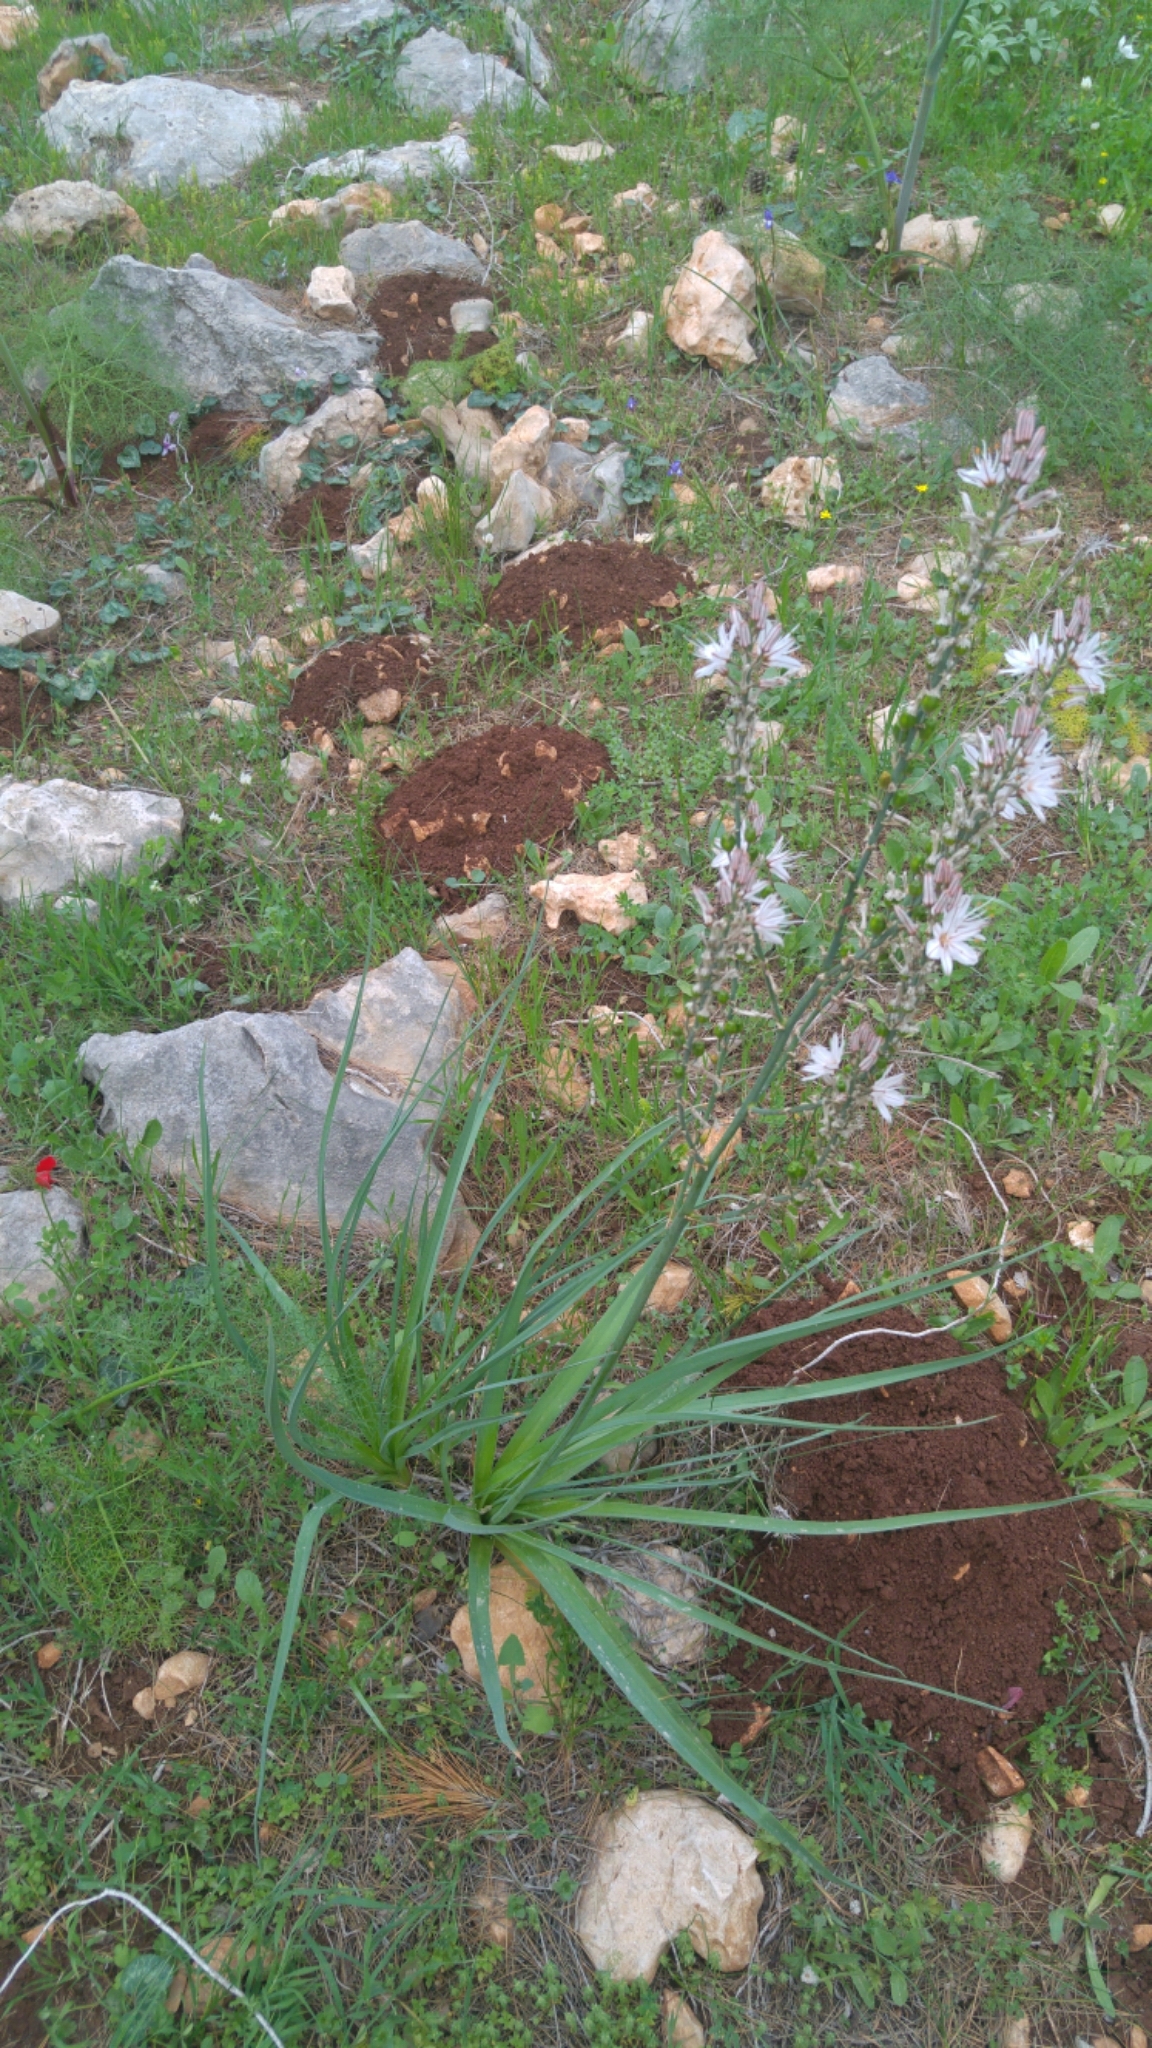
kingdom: Animalia
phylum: Chordata
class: Mammalia
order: Rodentia
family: Spalacidae
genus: Spalax
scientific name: Spalax ehrenbergi
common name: Middle east blind mole rat
